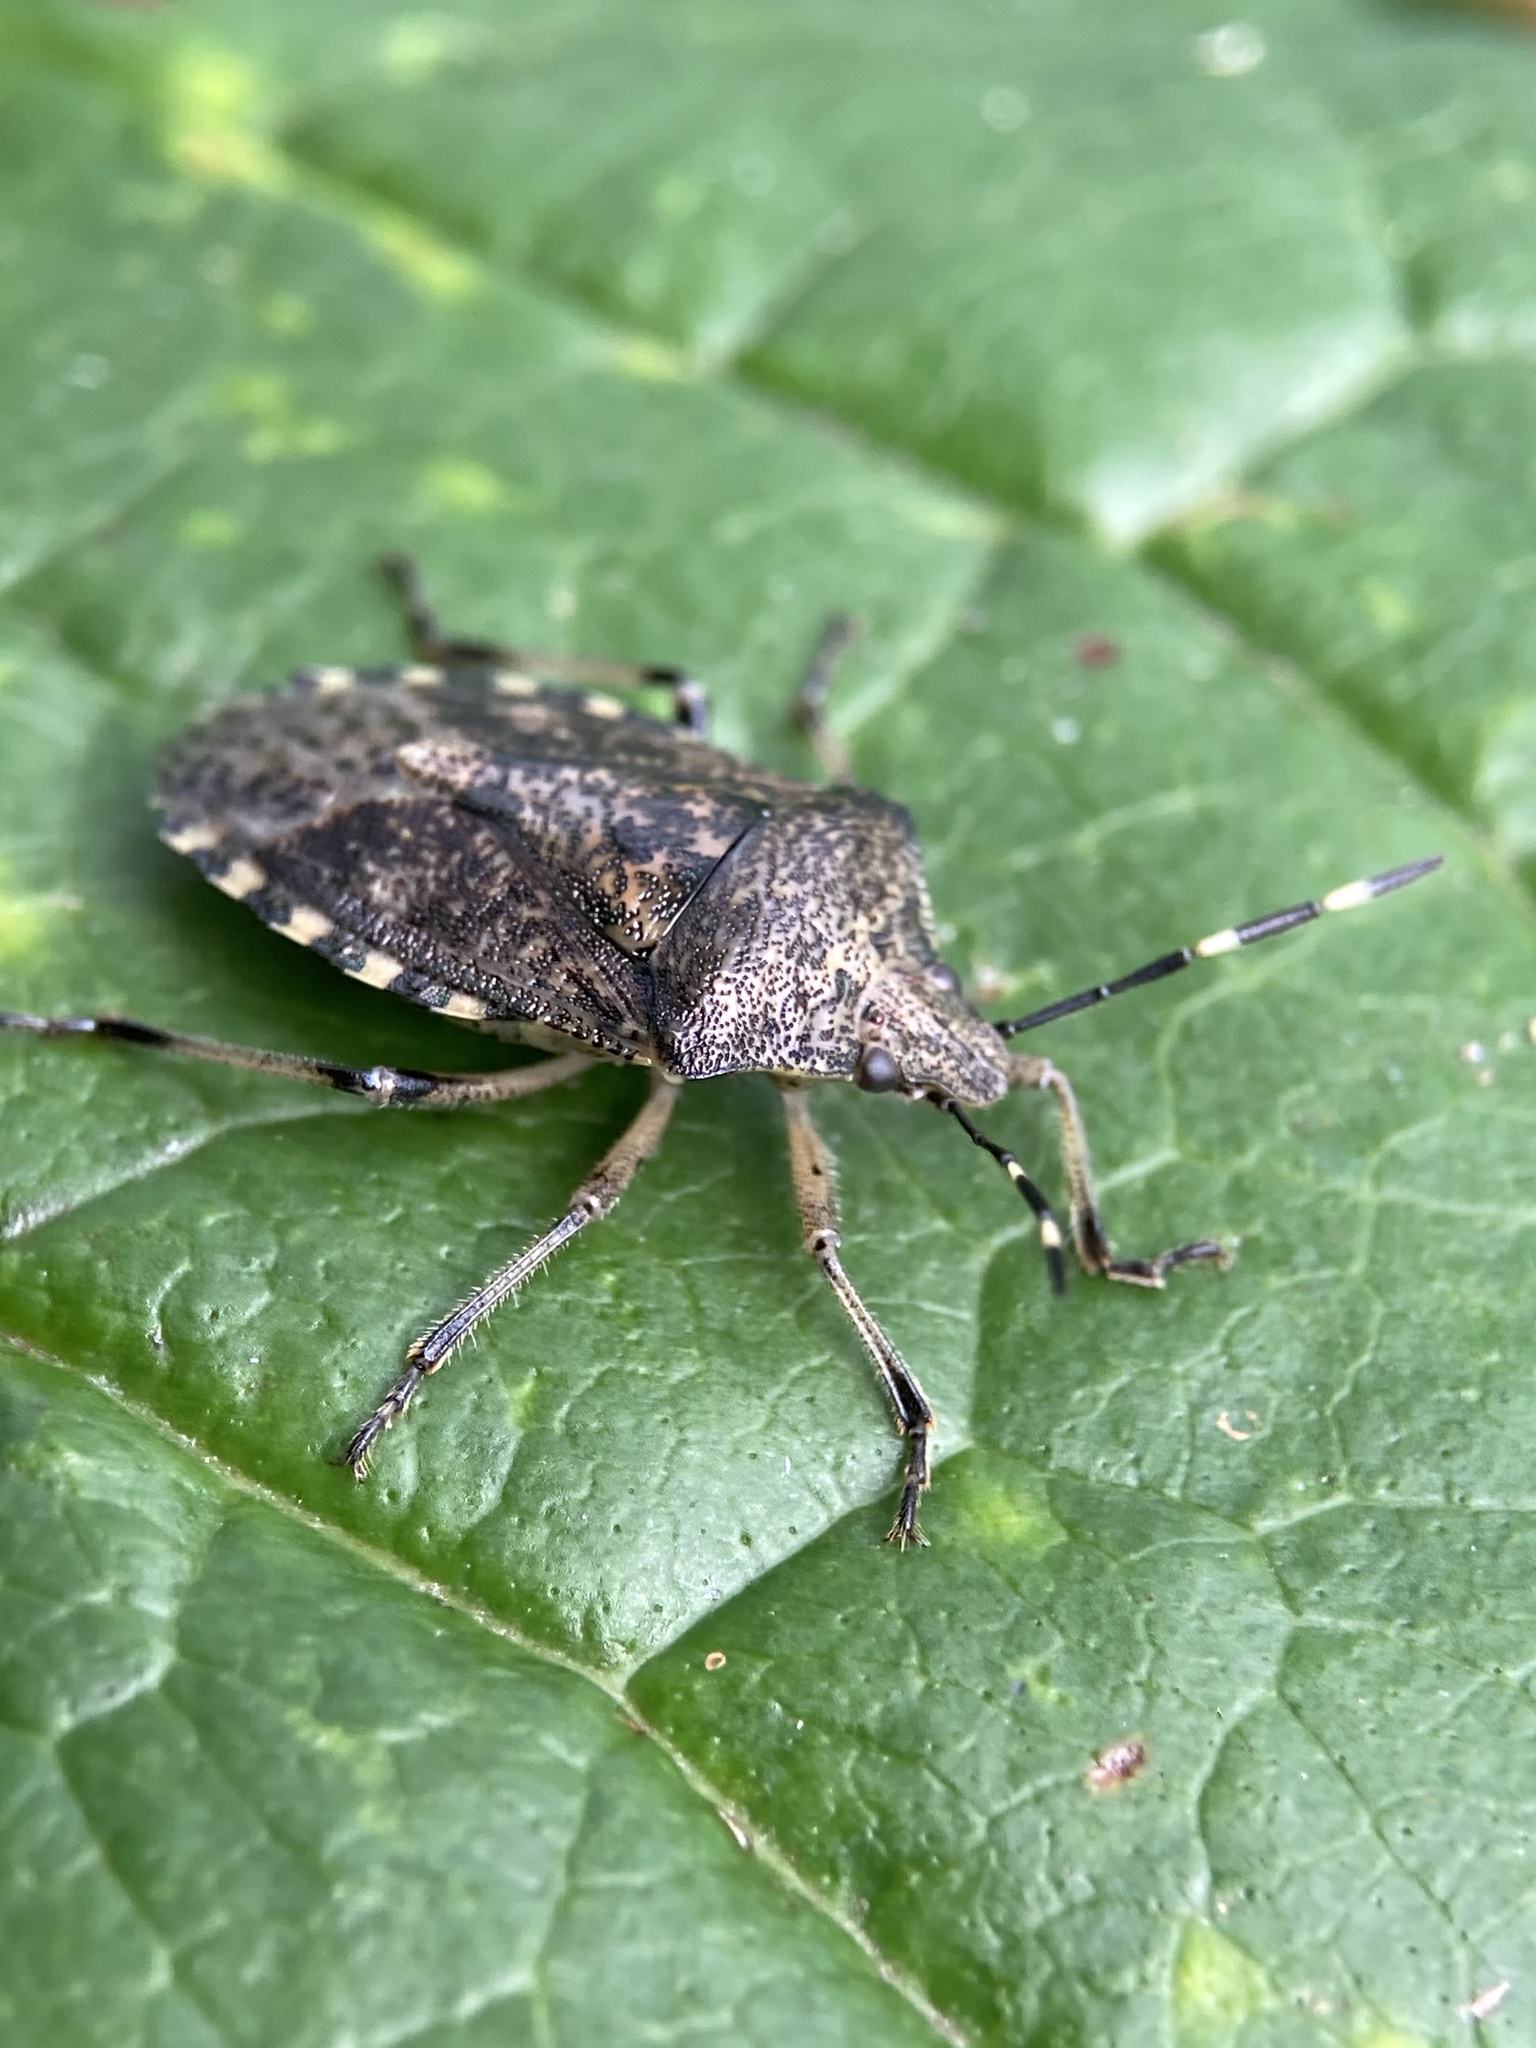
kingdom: Animalia
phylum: Arthropoda
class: Insecta
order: Hemiptera
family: Pentatomidae
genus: Rhaphigaster
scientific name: Rhaphigaster nebulosa
